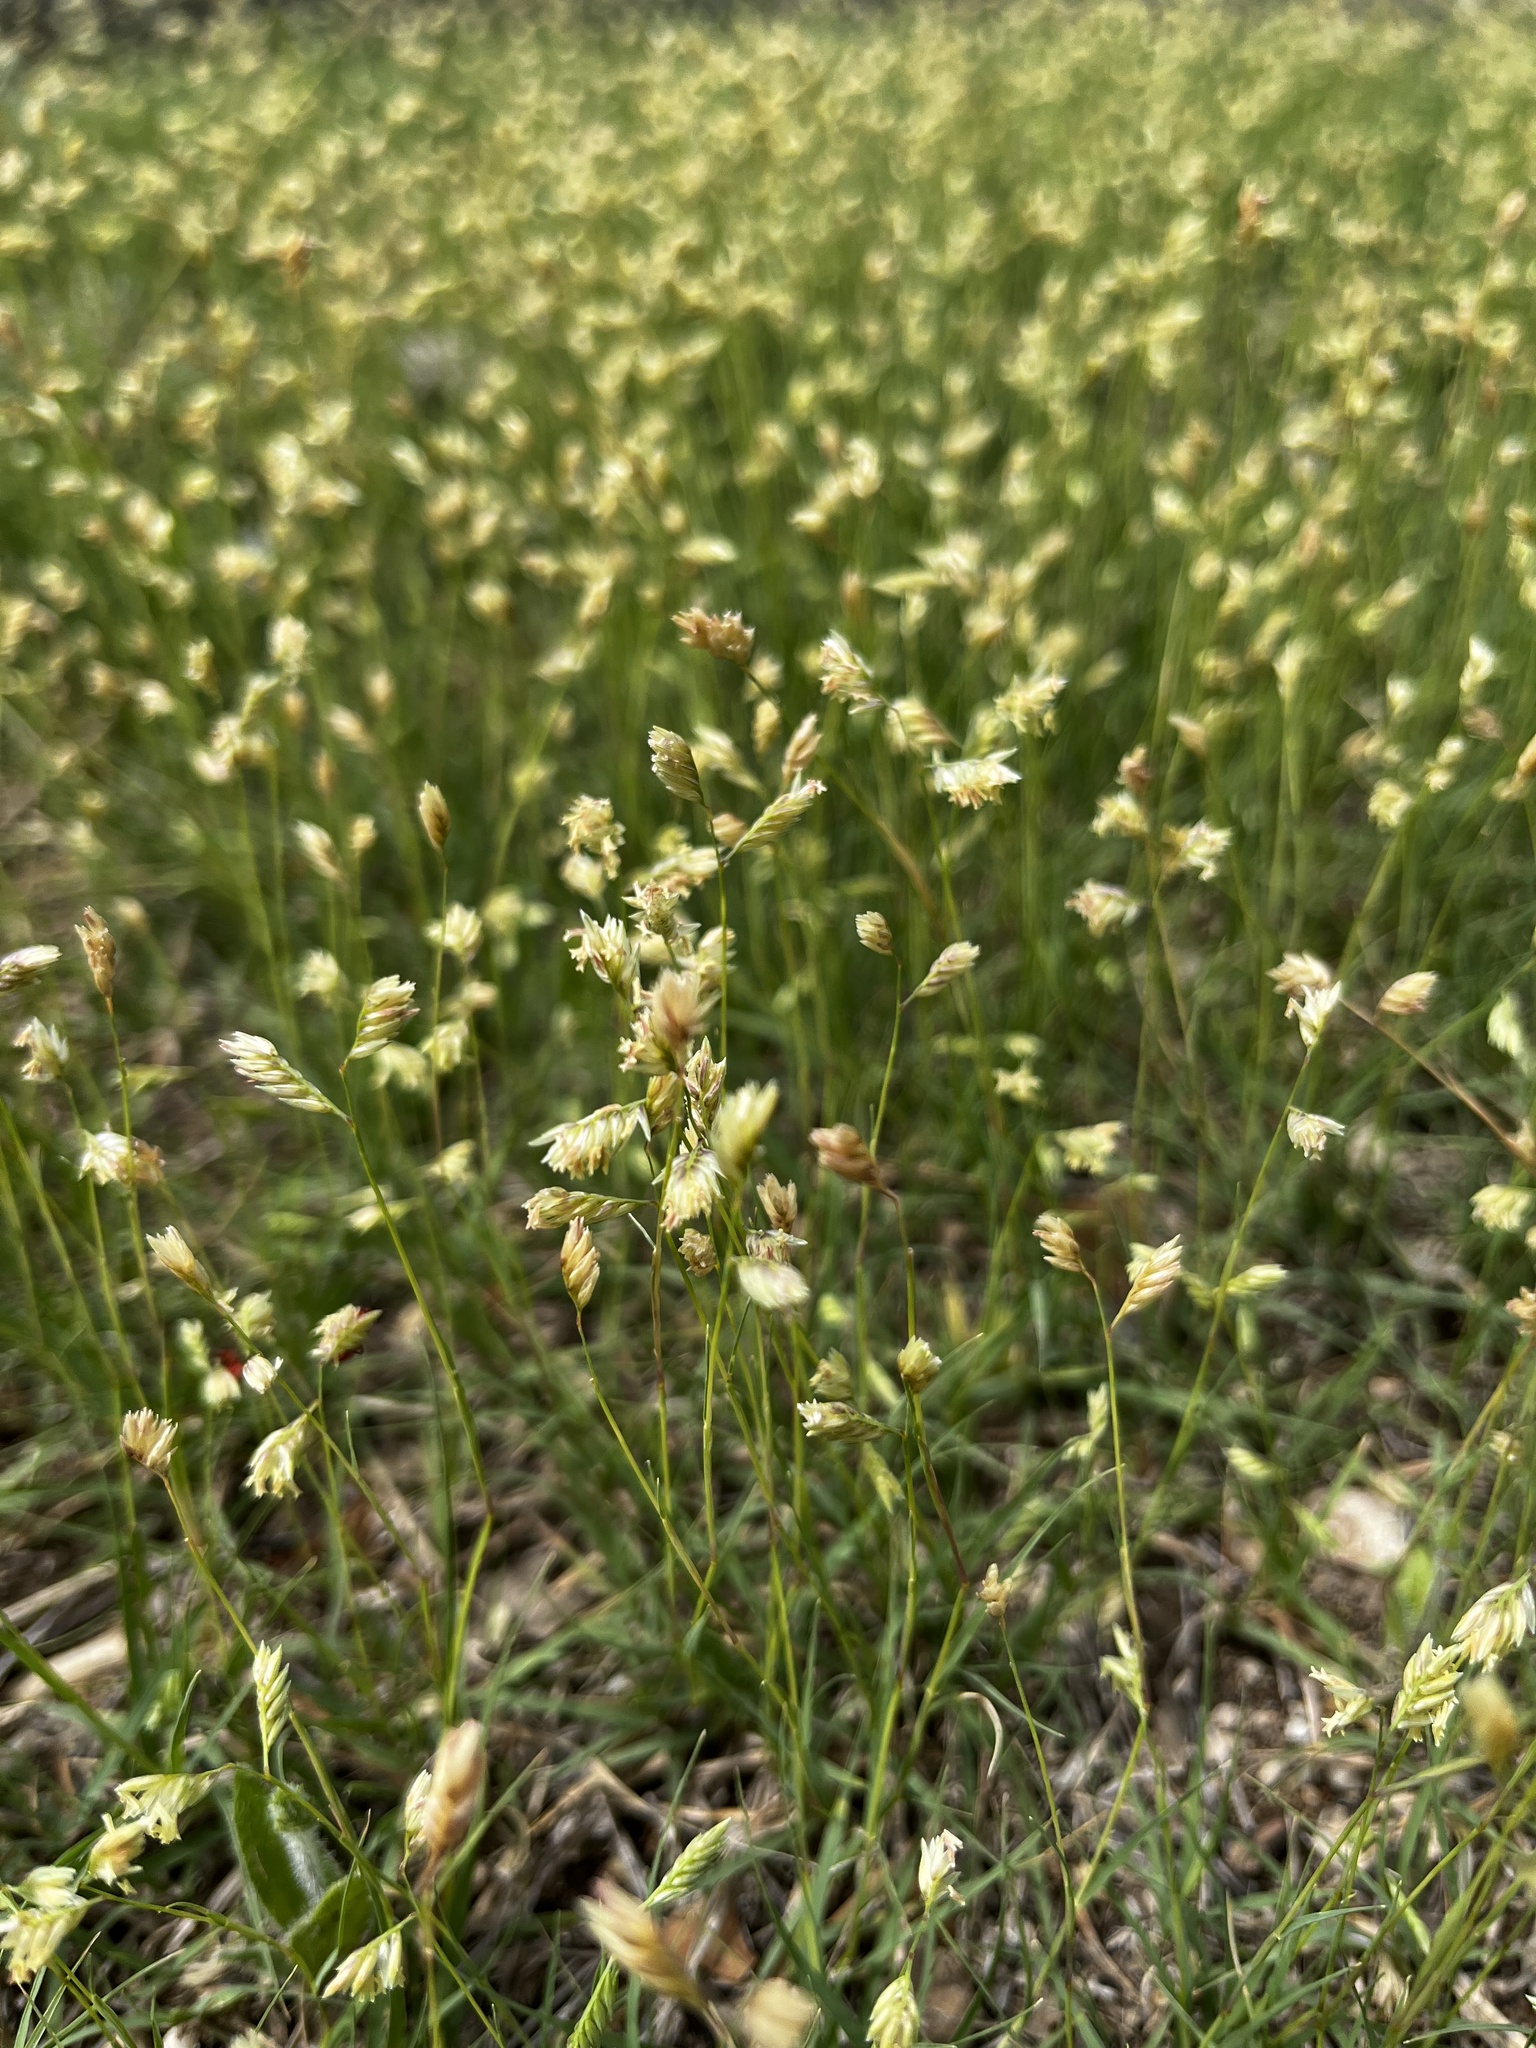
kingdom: Plantae
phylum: Tracheophyta
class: Liliopsida
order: Poales
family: Poaceae
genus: Bouteloua
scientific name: Bouteloua dactyloides
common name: Buffalo grass
